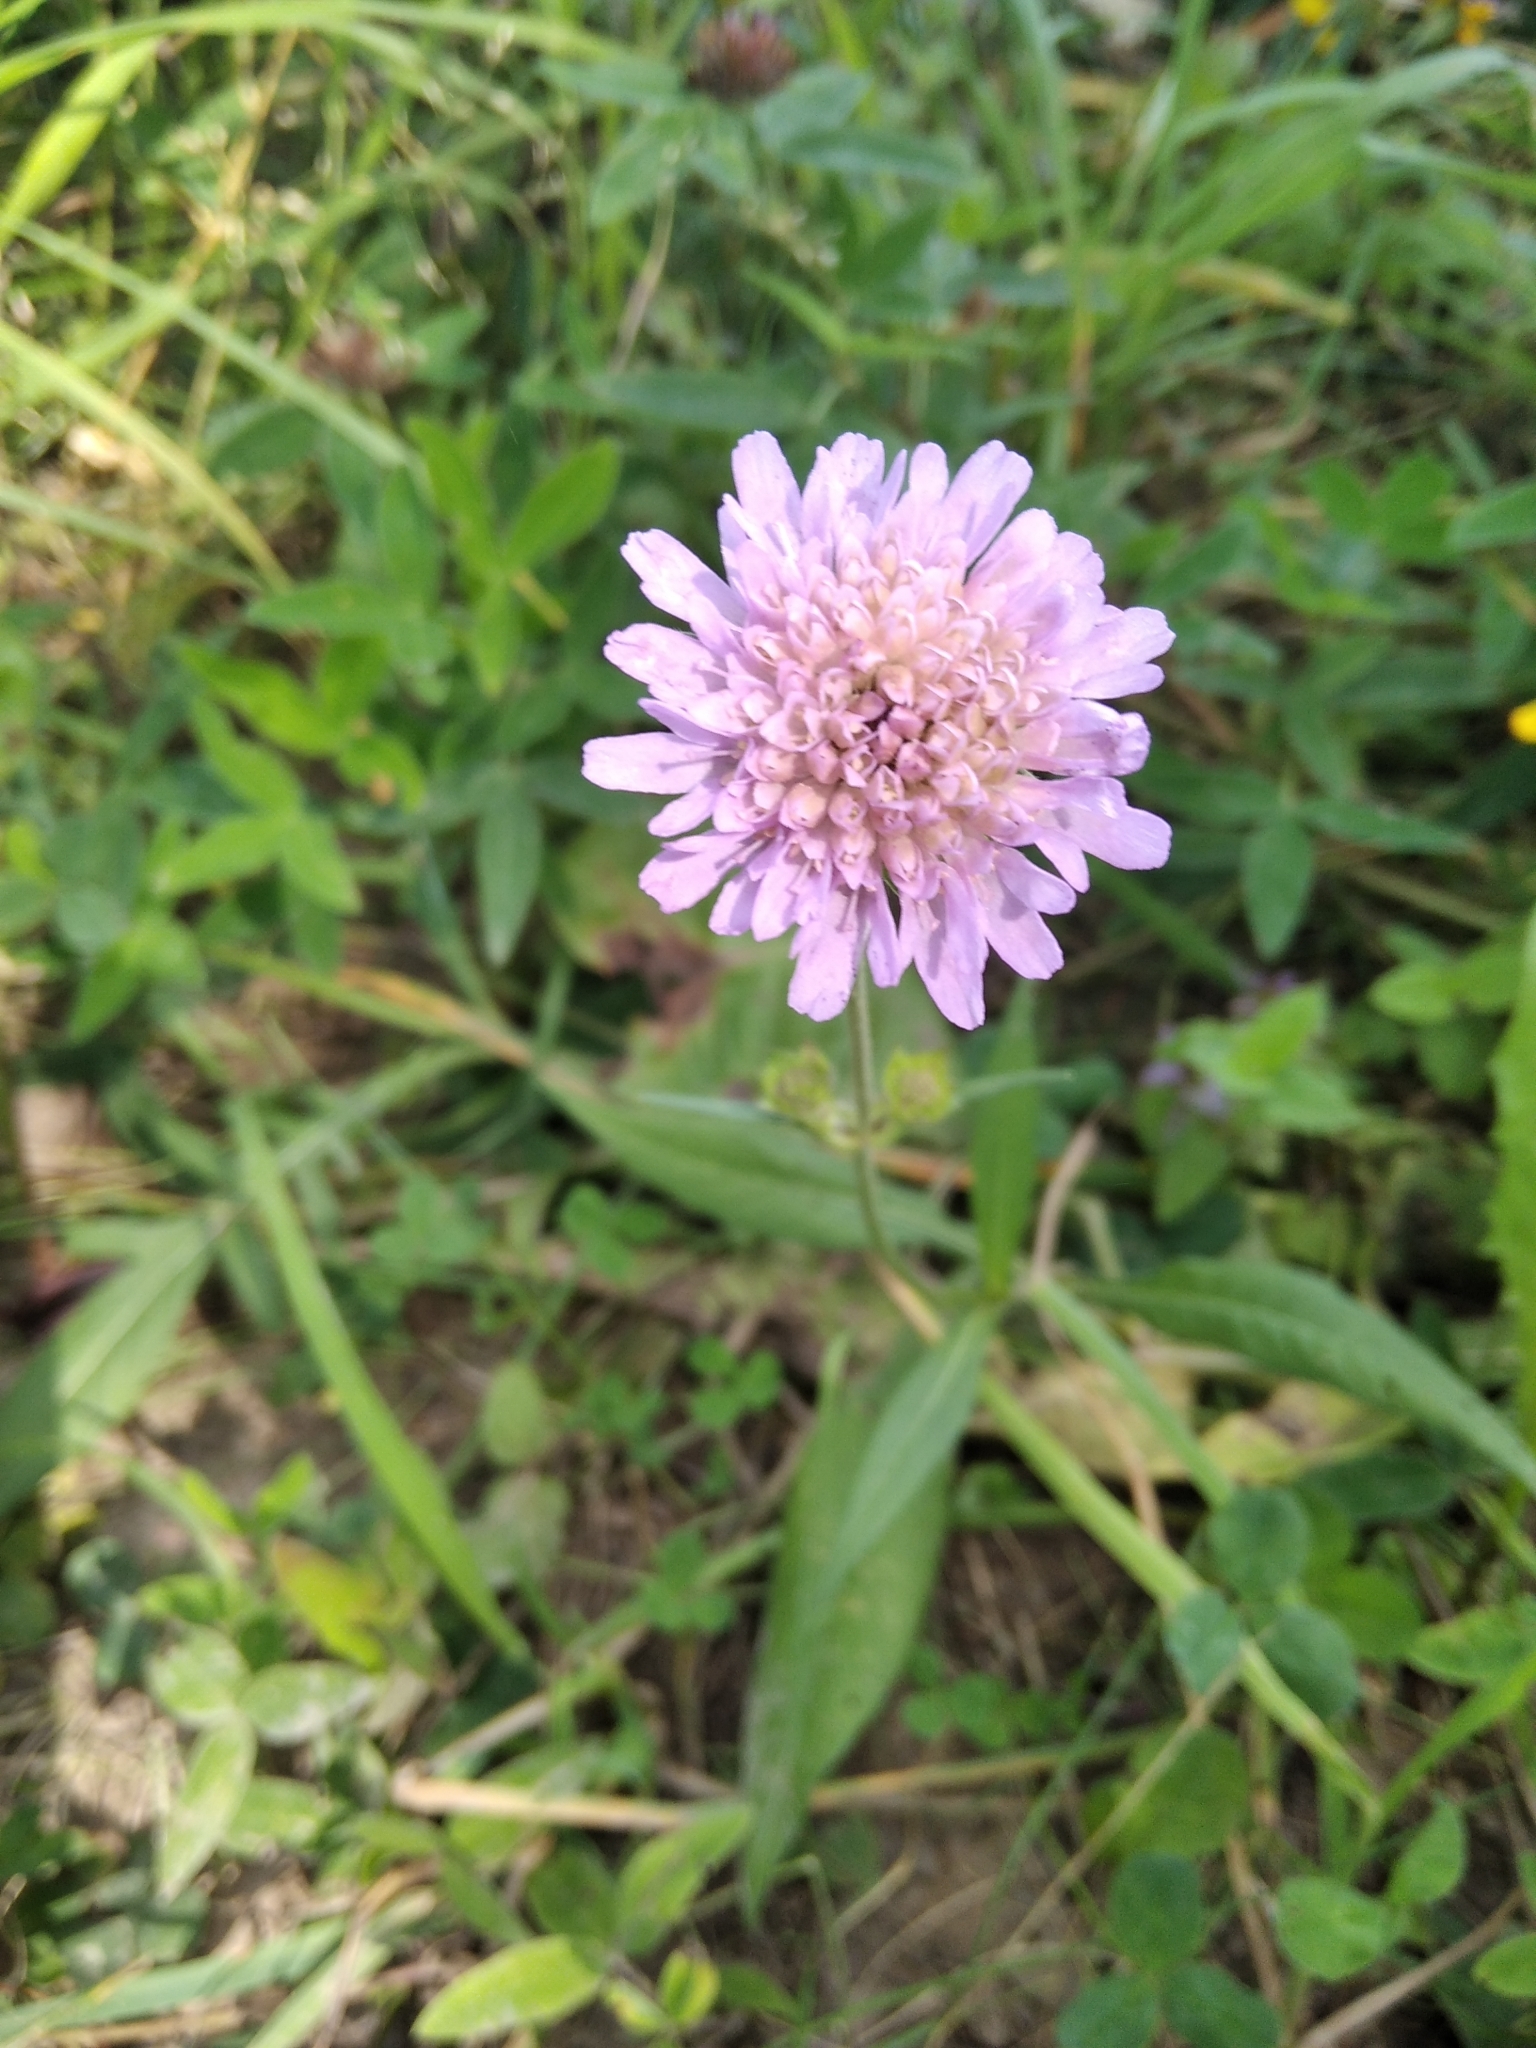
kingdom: Plantae
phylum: Tracheophyta
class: Magnoliopsida
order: Dipsacales
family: Caprifoliaceae
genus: Knautia
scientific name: Knautia arvensis
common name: Field scabiosa
